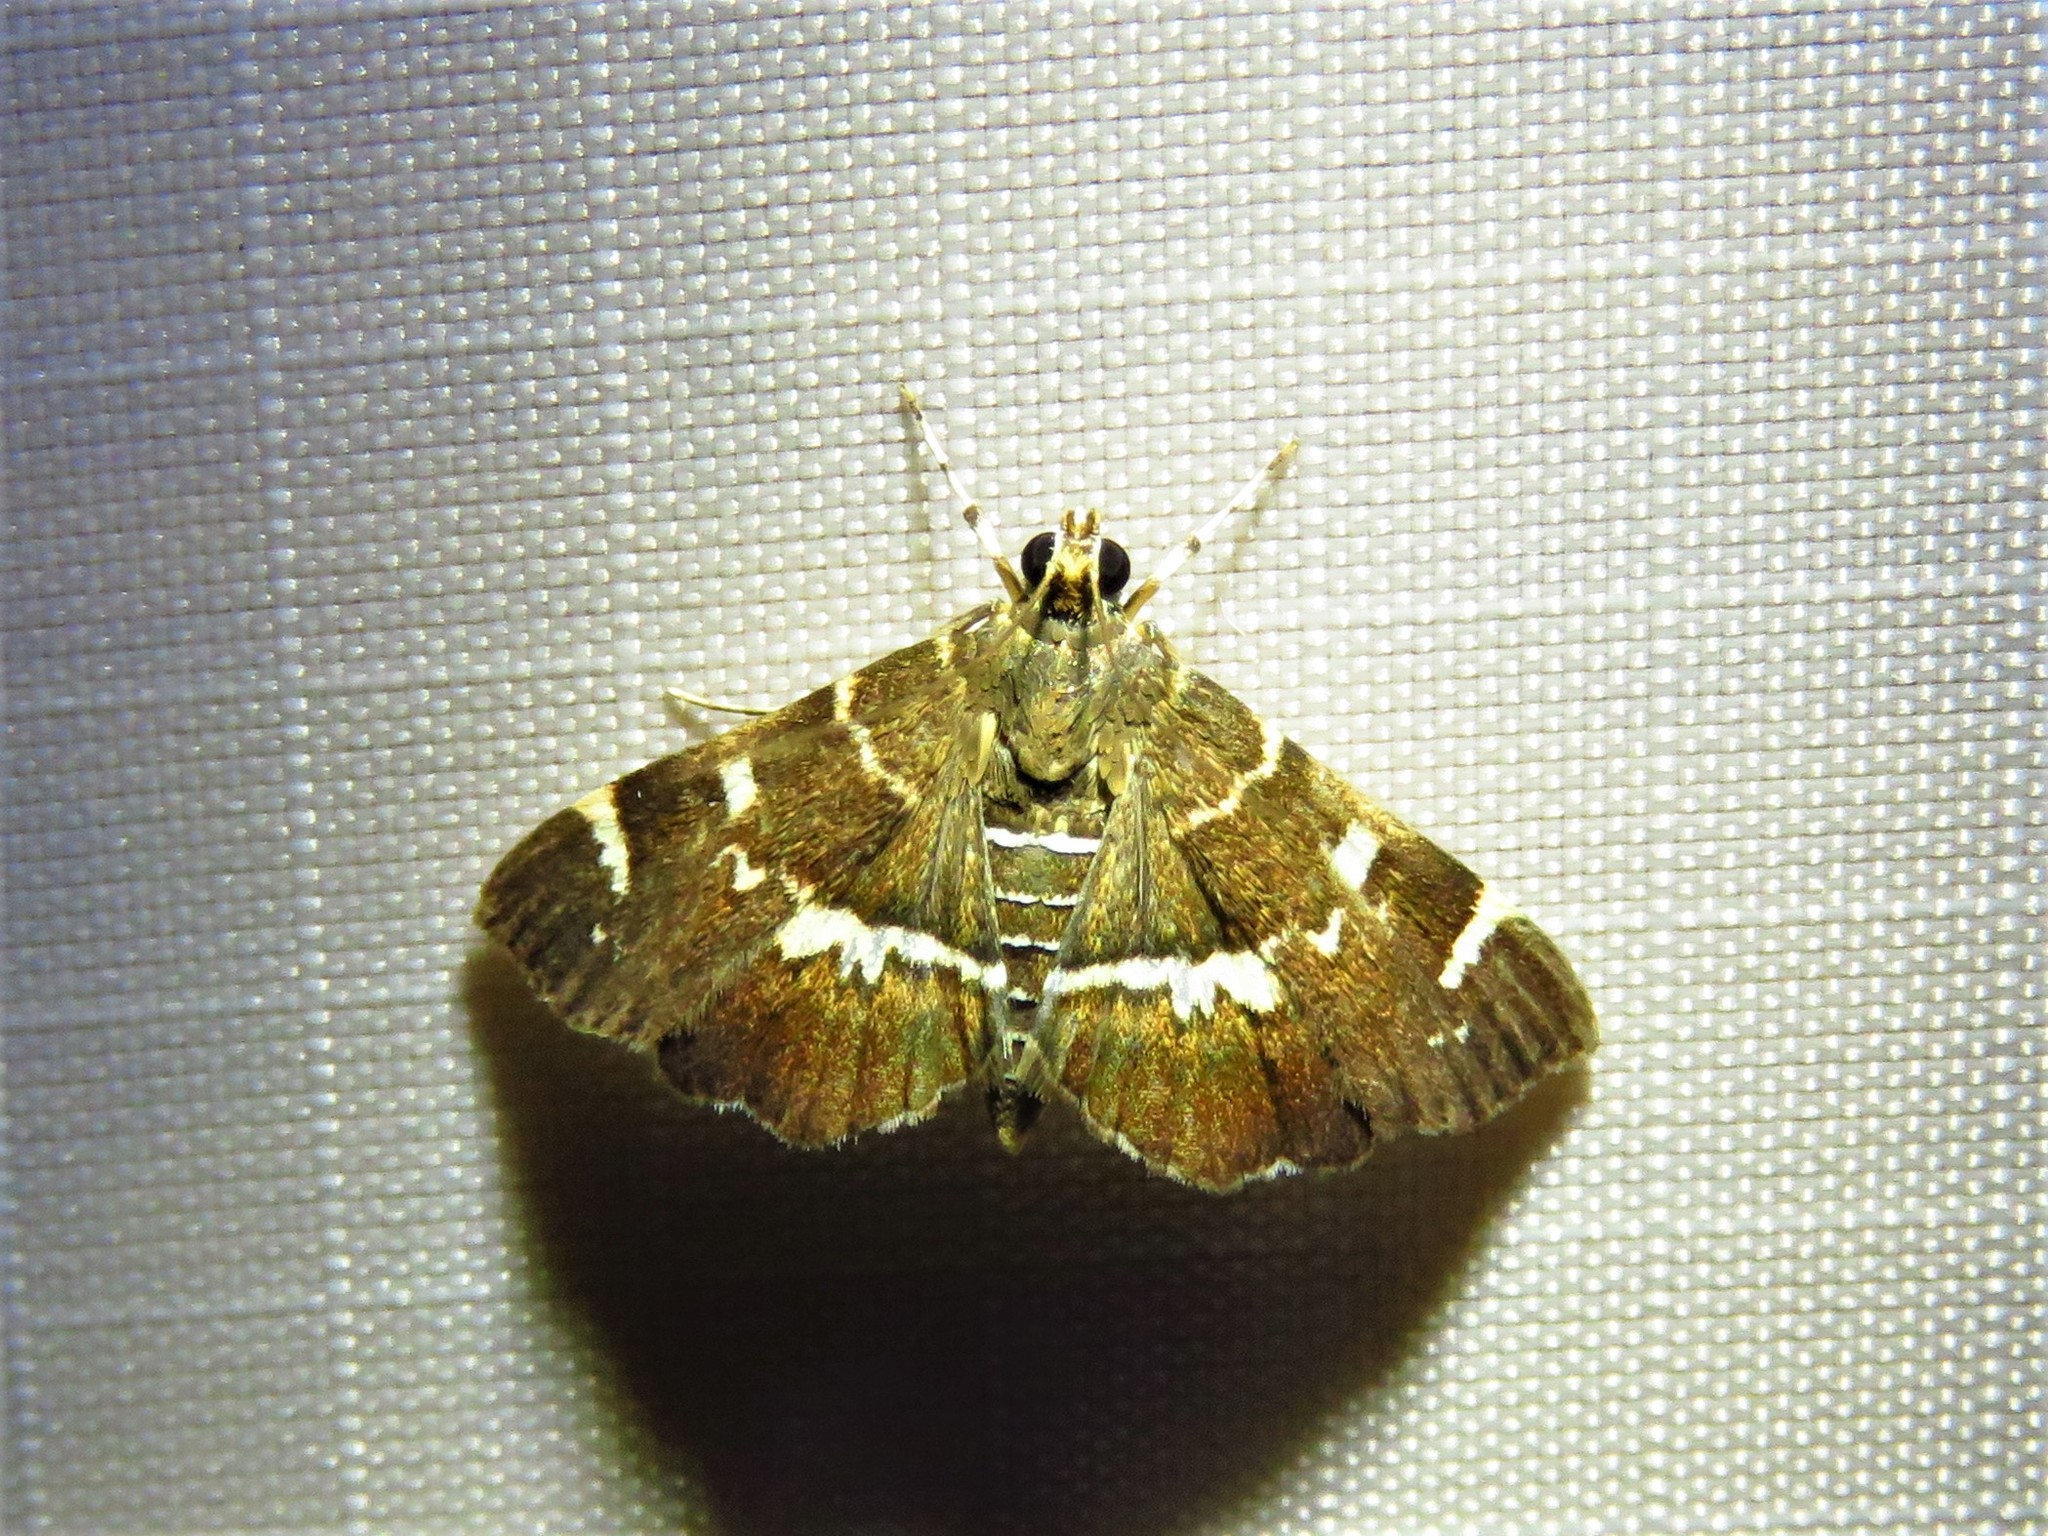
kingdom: Animalia
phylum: Arthropoda
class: Insecta
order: Lepidoptera
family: Crambidae
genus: Hymenia
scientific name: Hymenia perspectalis
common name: Spotted beet webworm
